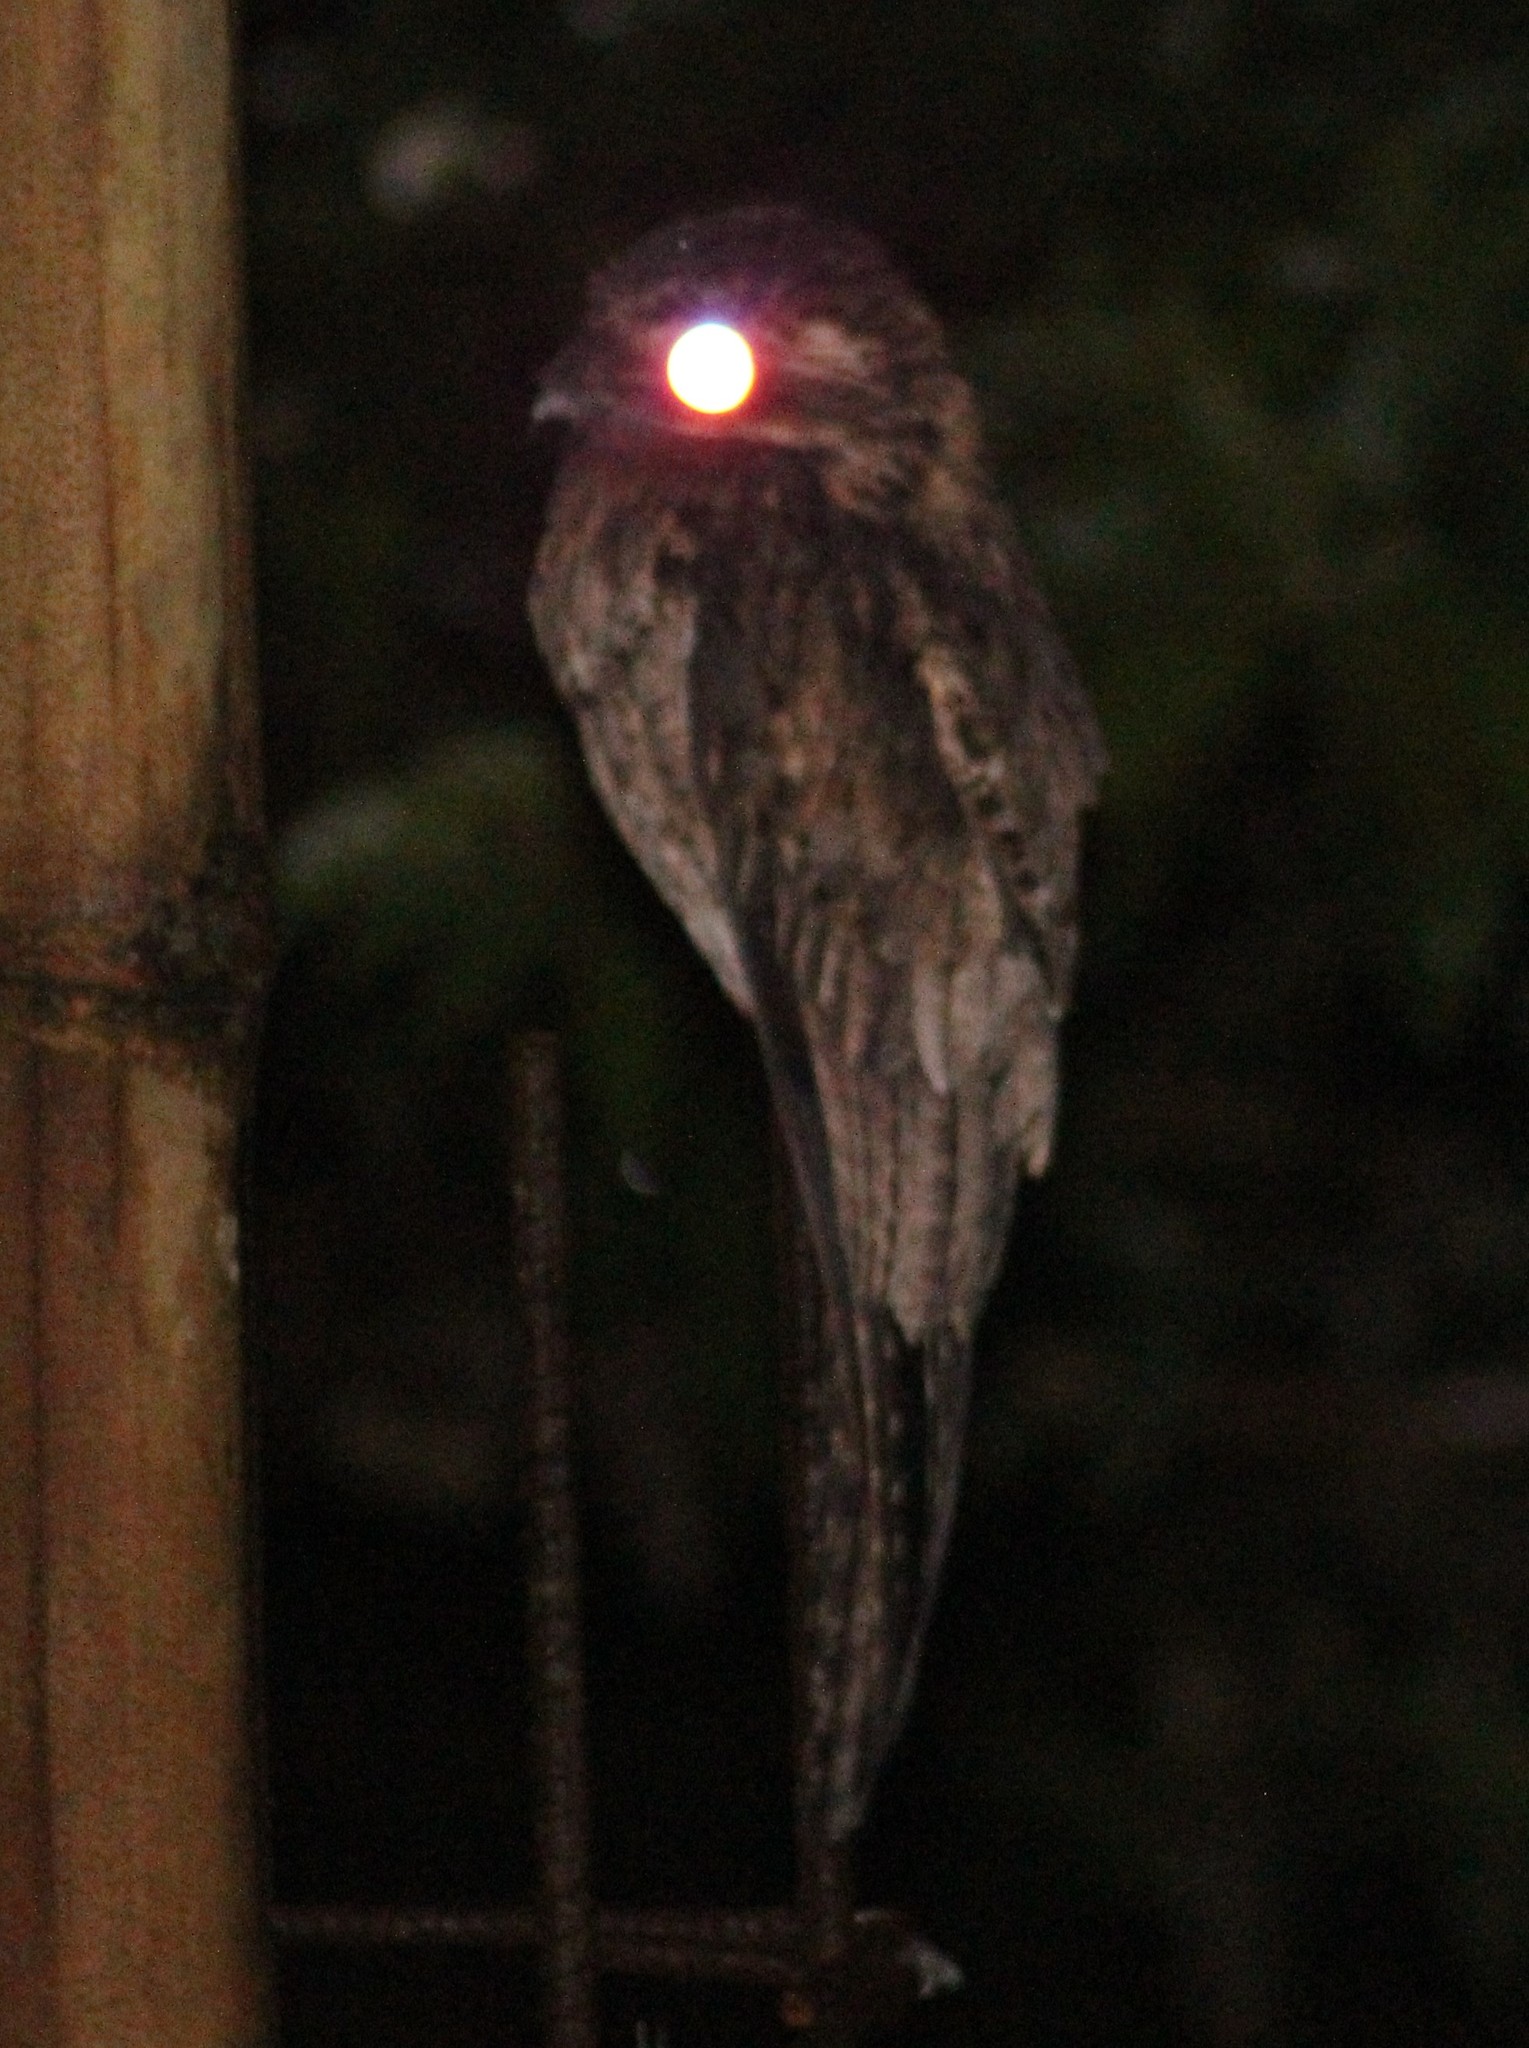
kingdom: Animalia
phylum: Chordata
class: Aves
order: Nyctibiiformes
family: Nyctibiidae
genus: Nyctibius
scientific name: Nyctibius griseus
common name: Common potoo
